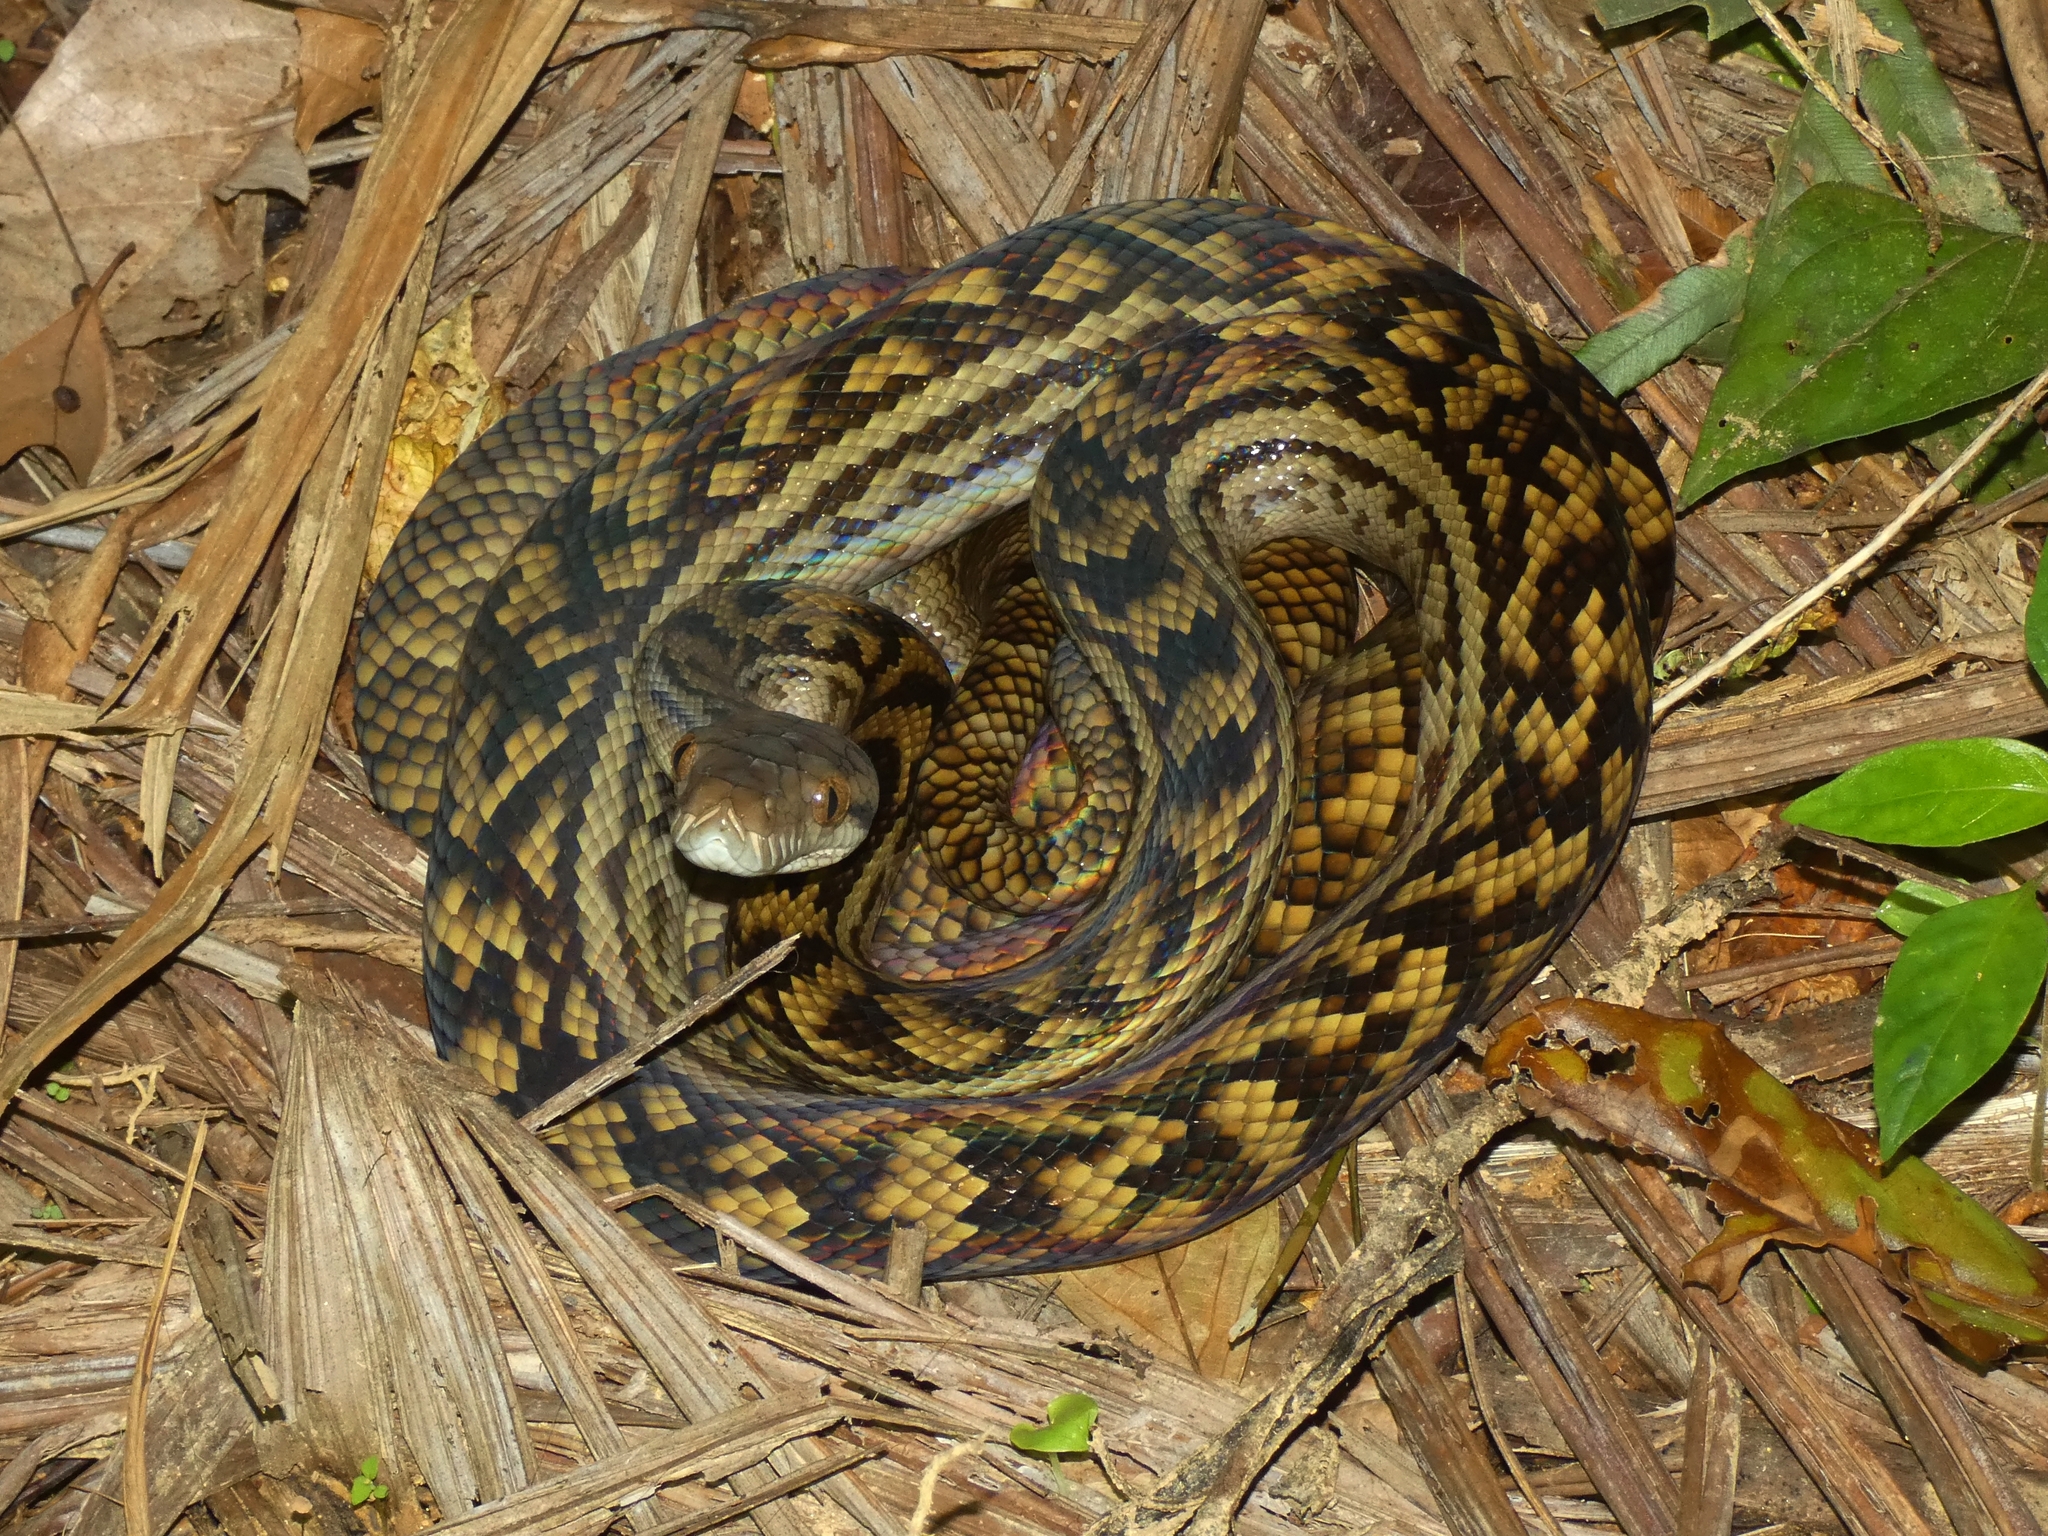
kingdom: Animalia
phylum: Chordata
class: Squamata
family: Pythonidae
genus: Simalia
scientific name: Simalia kinghorni
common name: Scrub python
